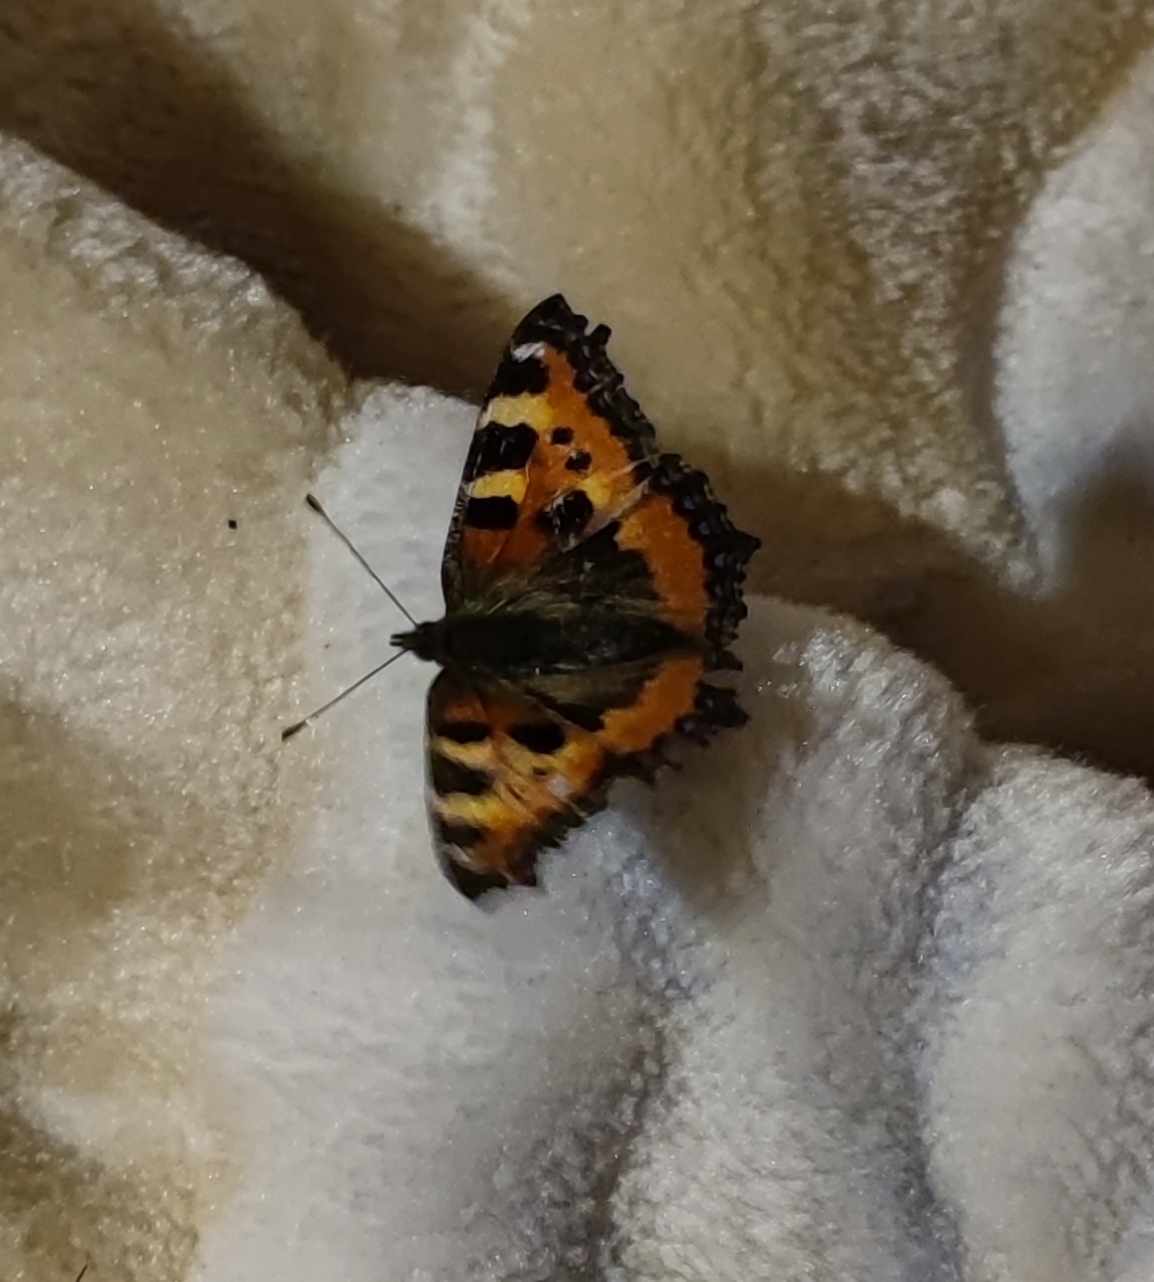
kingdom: Animalia
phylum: Arthropoda
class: Insecta
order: Lepidoptera
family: Nymphalidae
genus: Aglais
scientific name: Aglais urticae
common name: Small tortoiseshell
